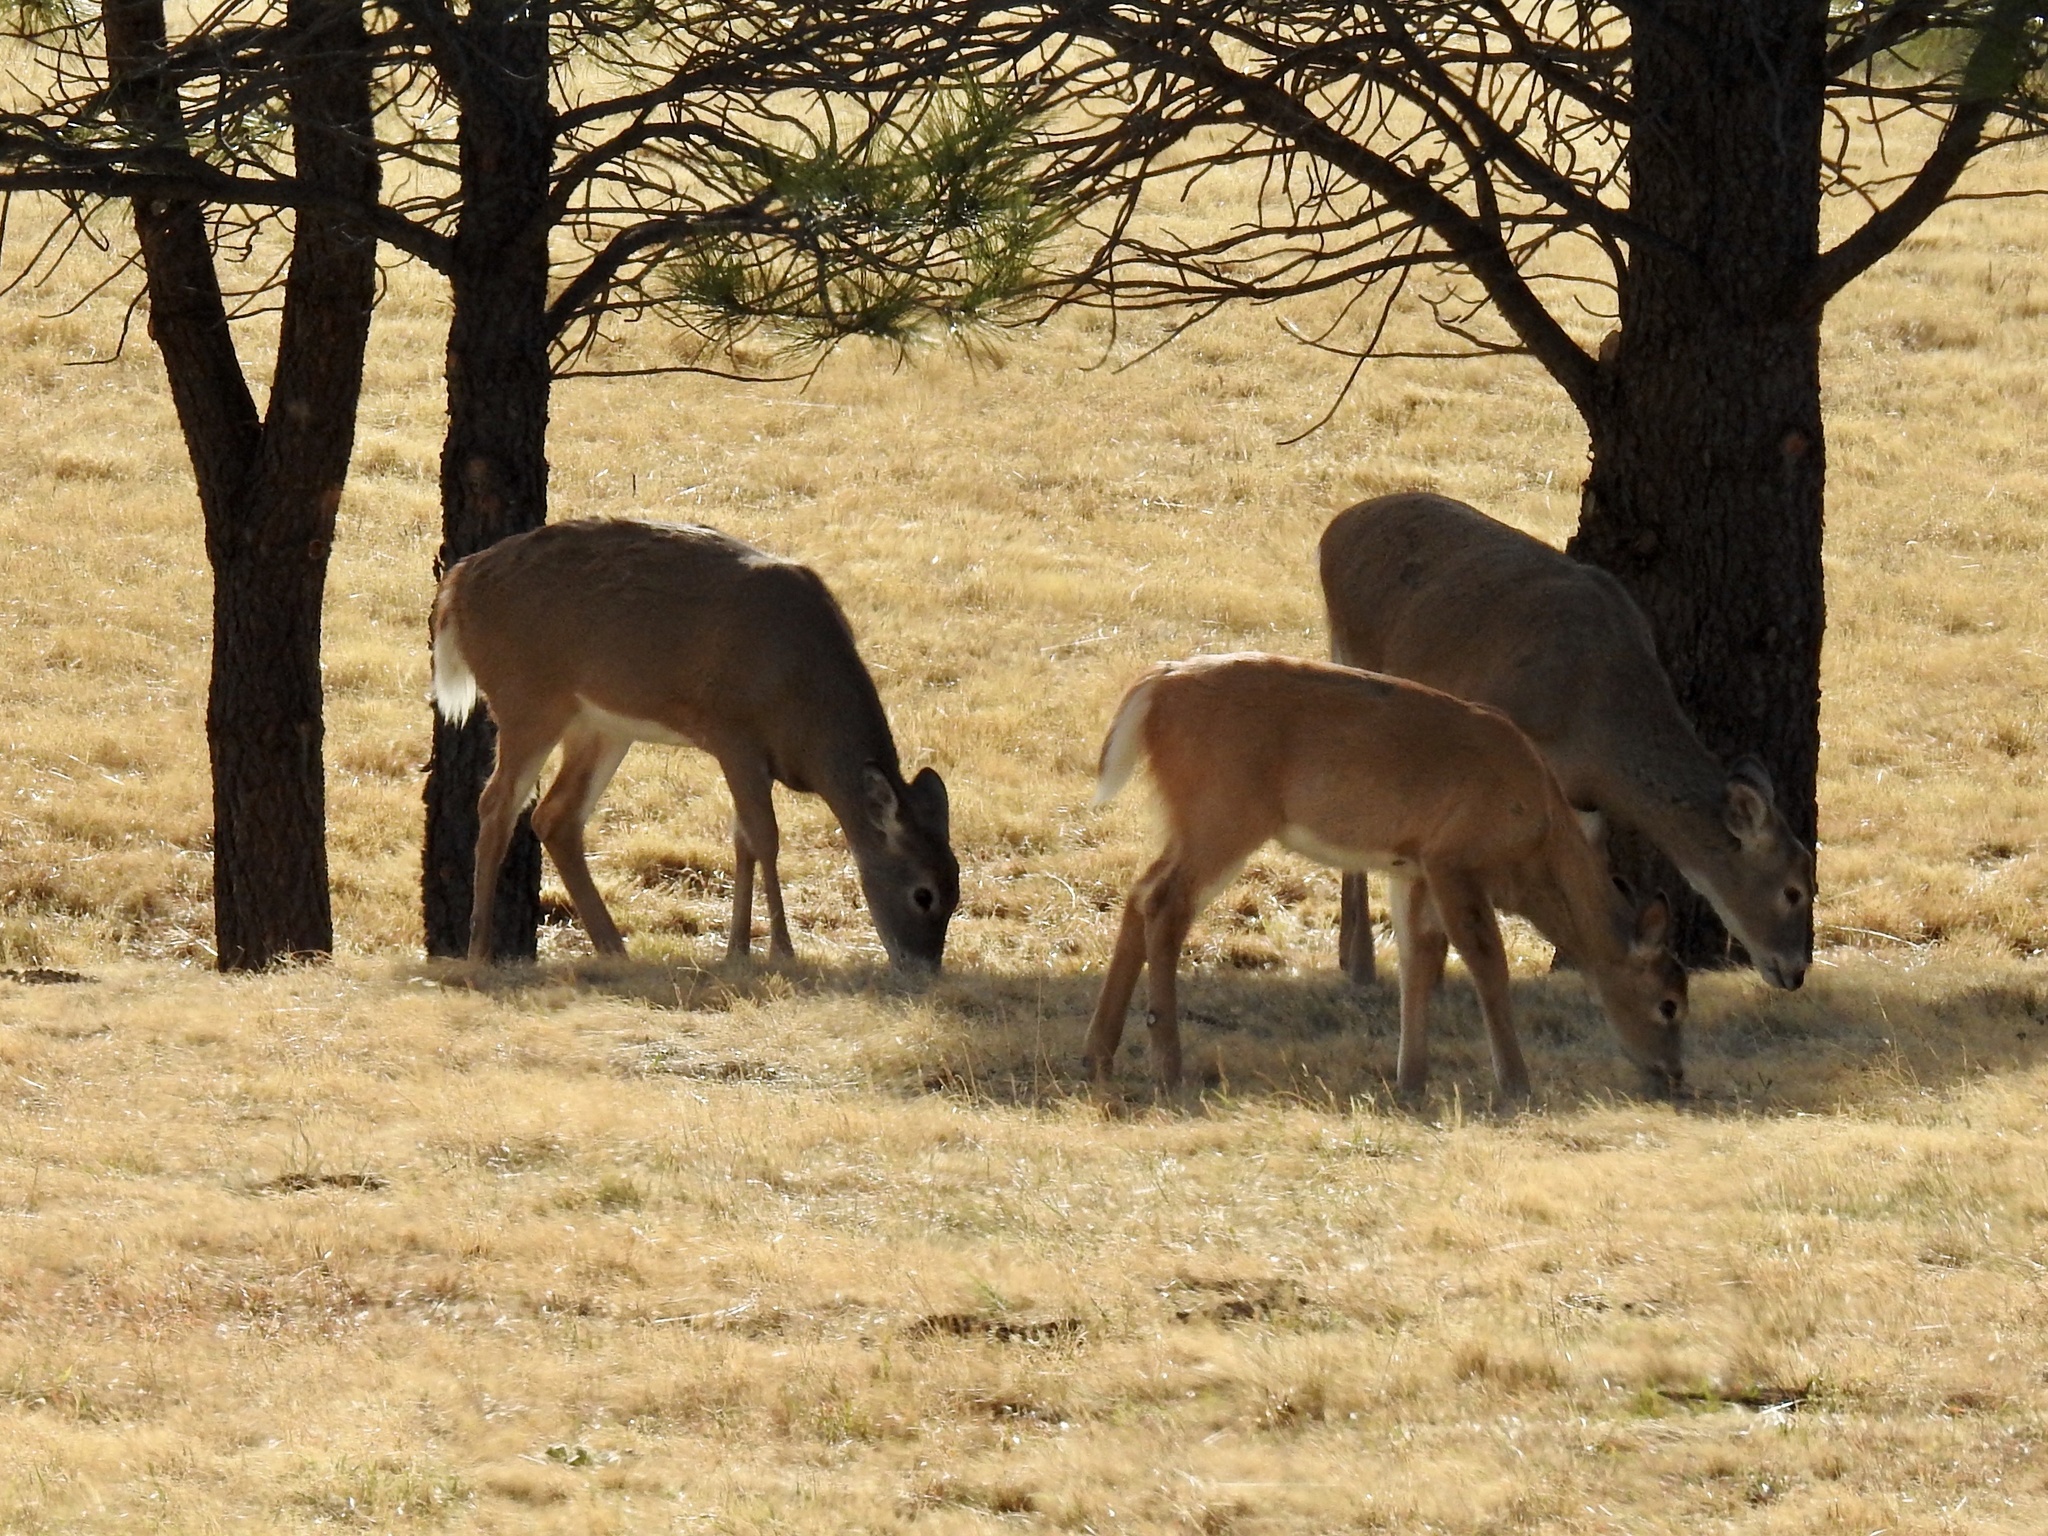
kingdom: Animalia
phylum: Chordata
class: Mammalia
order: Artiodactyla
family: Cervidae
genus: Odocoileus
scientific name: Odocoileus virginianus
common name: White-tailed deer
